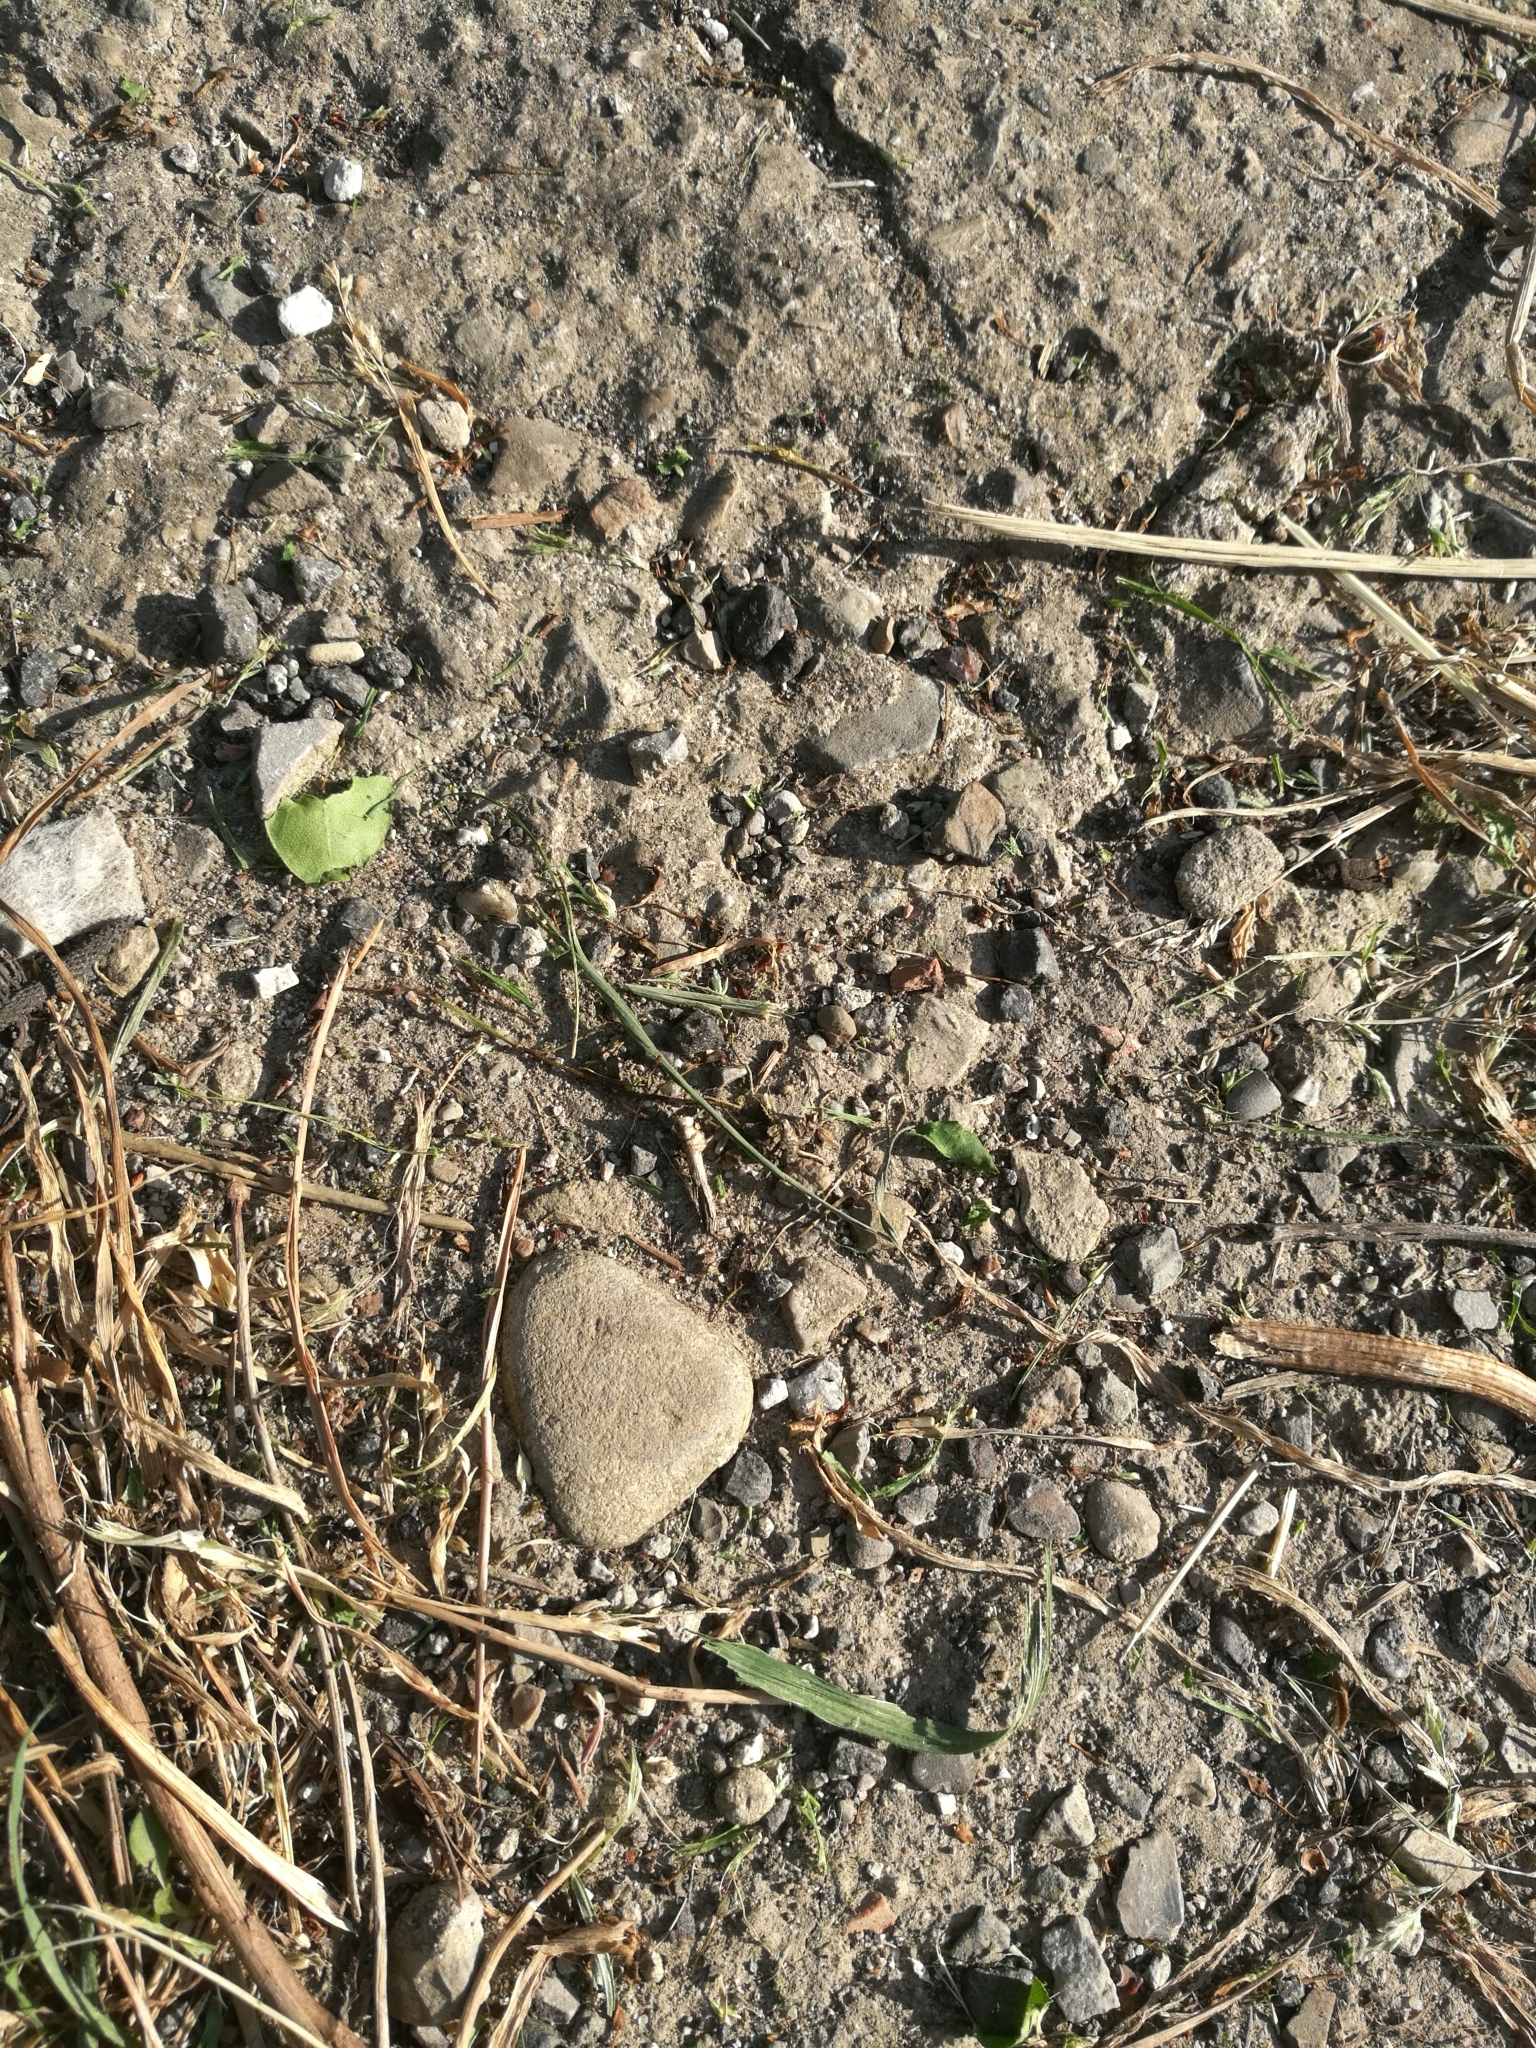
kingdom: Animalia
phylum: Arthropoda
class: Insecta
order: Hymenoptera
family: Formicidae
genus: Lasius
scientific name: Lasius fuliginosus
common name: Jet ant
